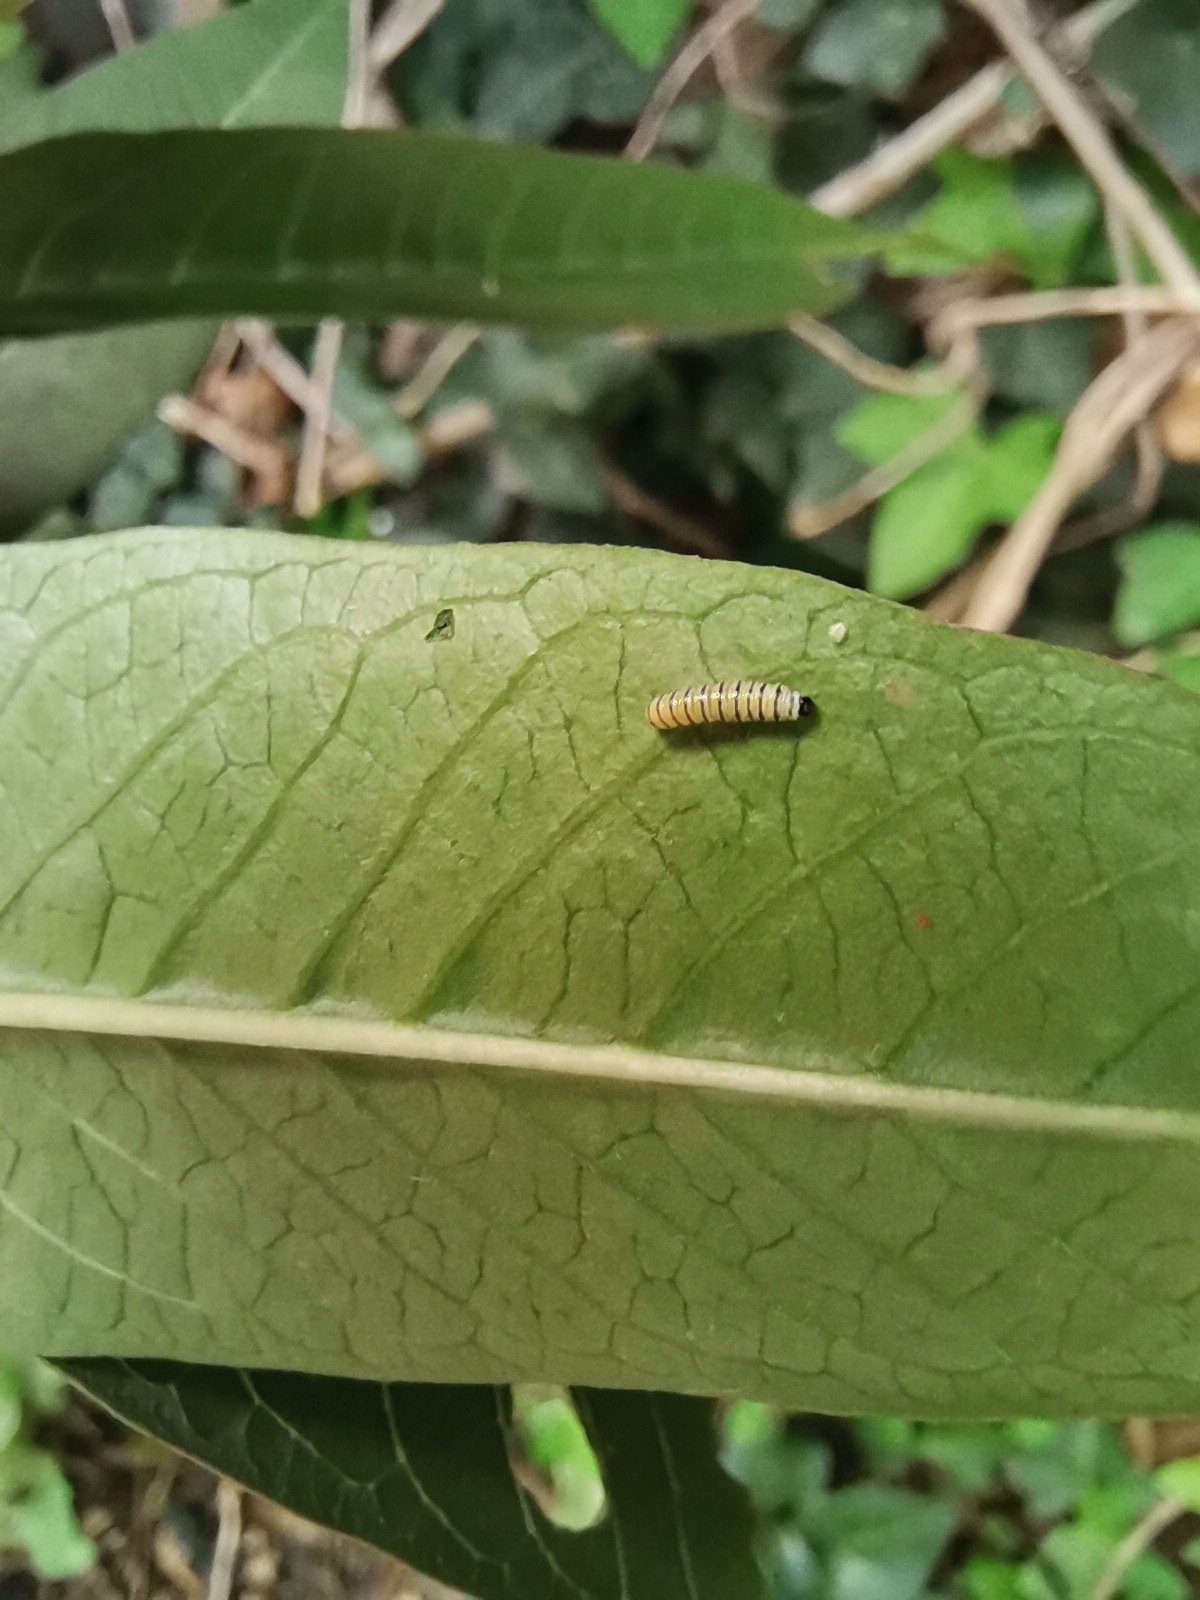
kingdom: Animalia
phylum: Arthropoda
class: Insecta
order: Lepidoptera
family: Nymphalidae
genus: Danaus
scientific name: Danaus plexippus
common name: Monarch
